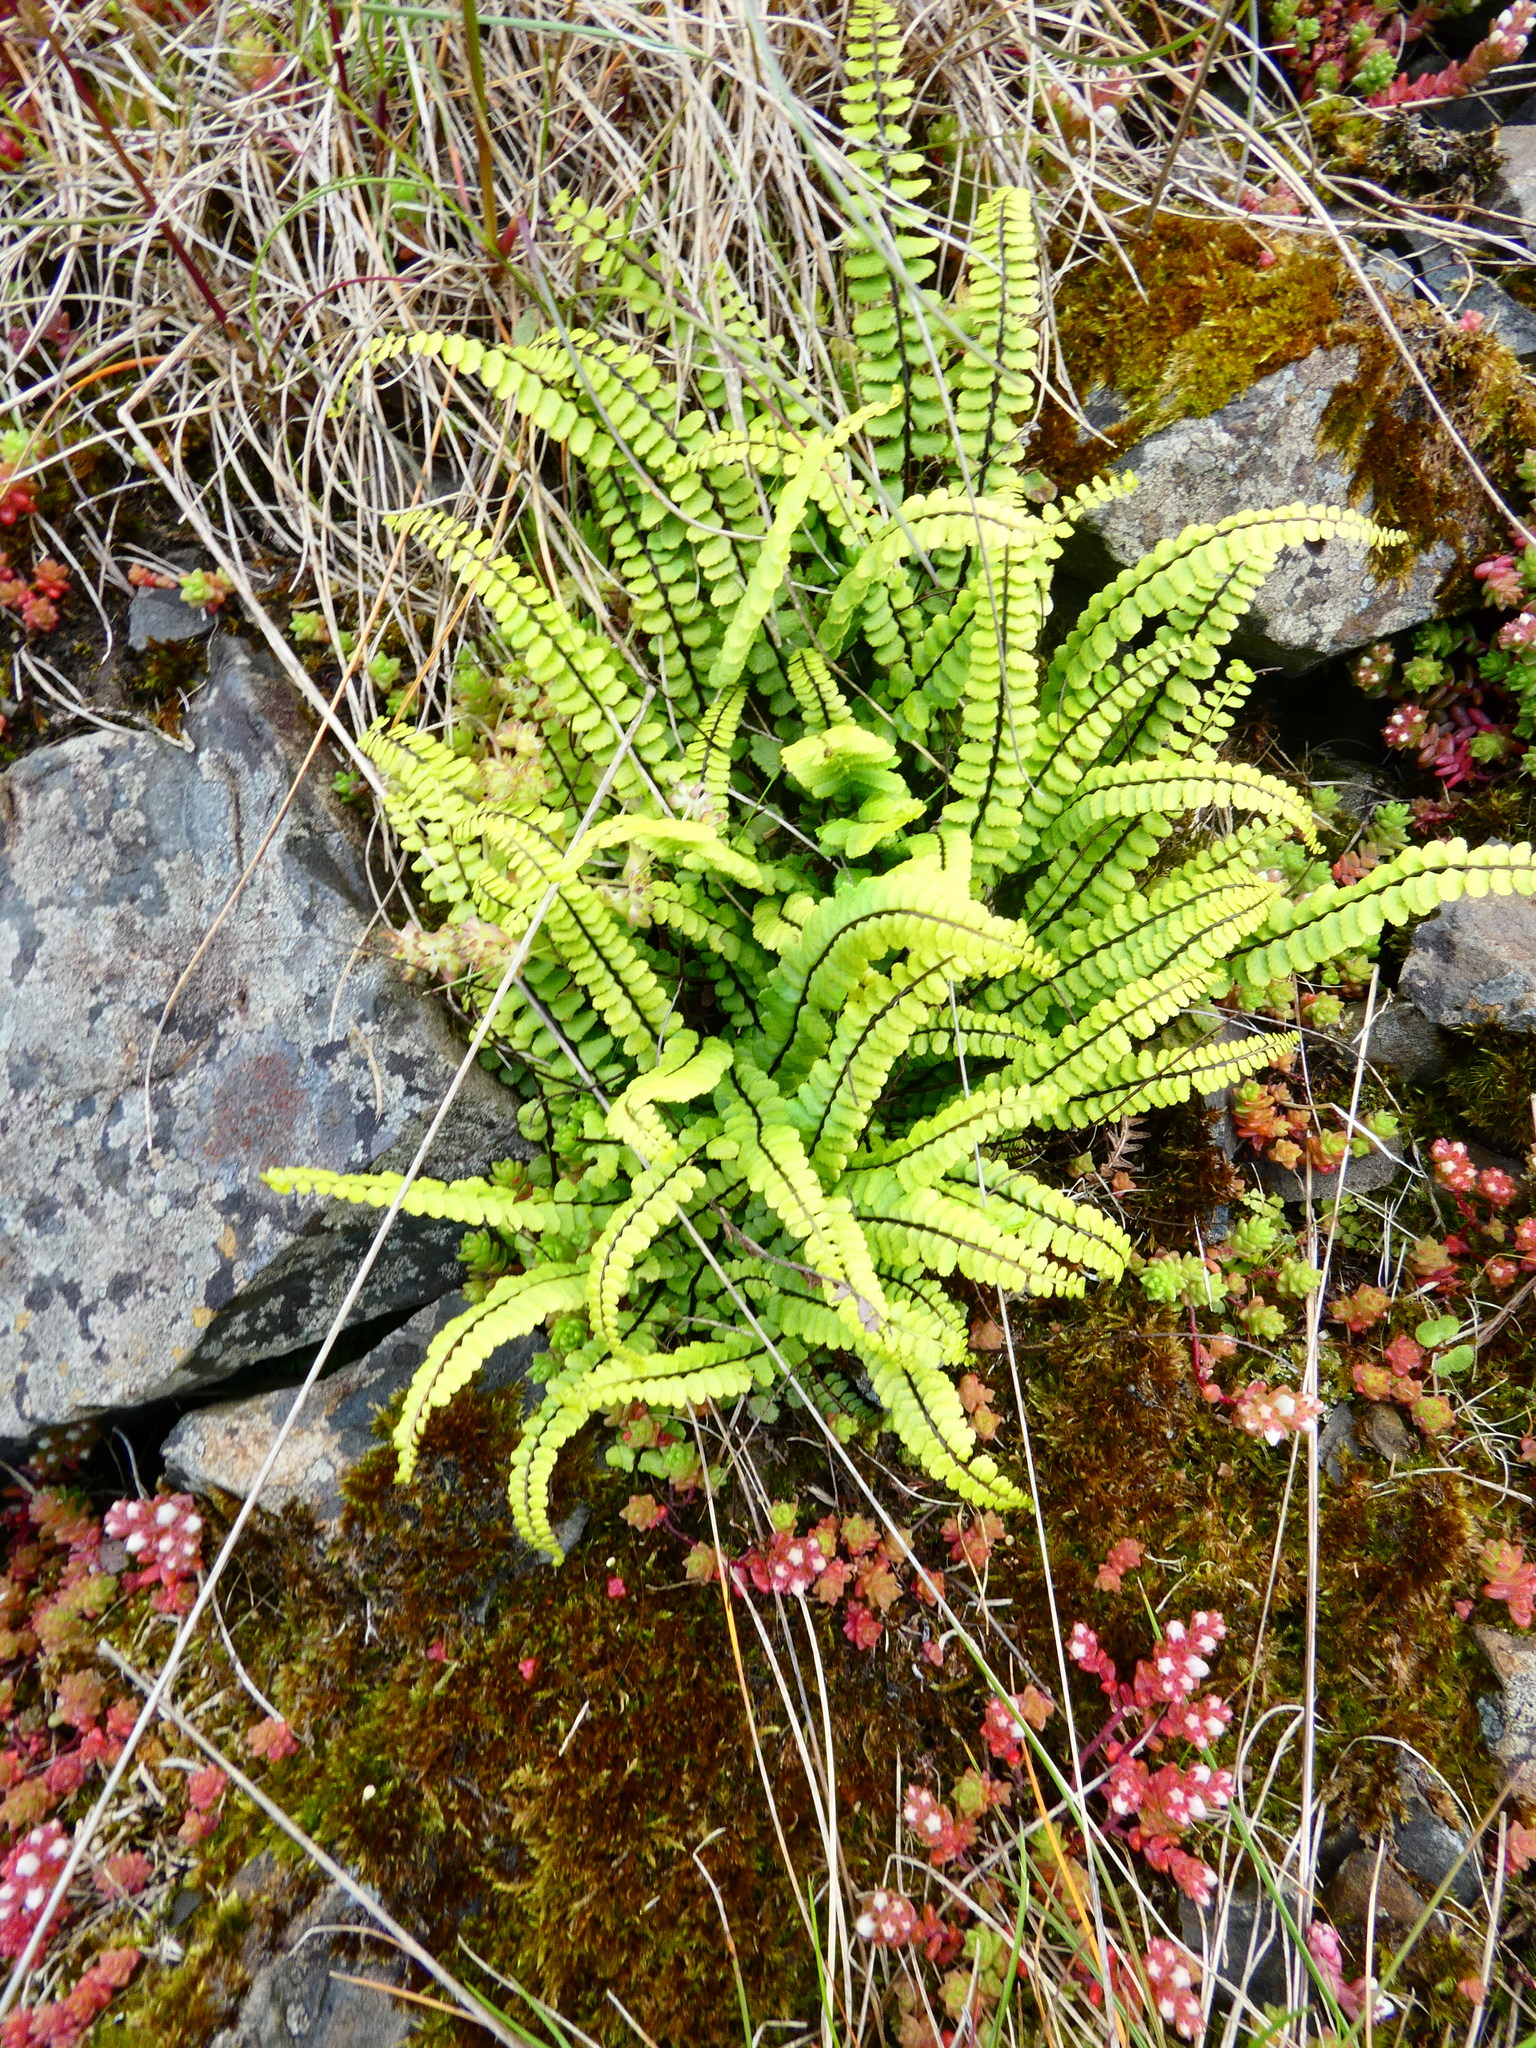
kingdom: Plantae
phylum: Tracheophyta
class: Polypodiopsida
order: Polypodiales
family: Aspleniaceae
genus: Asplenium
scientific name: Asplenium trichomanes
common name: Maidenhair spleenwort
